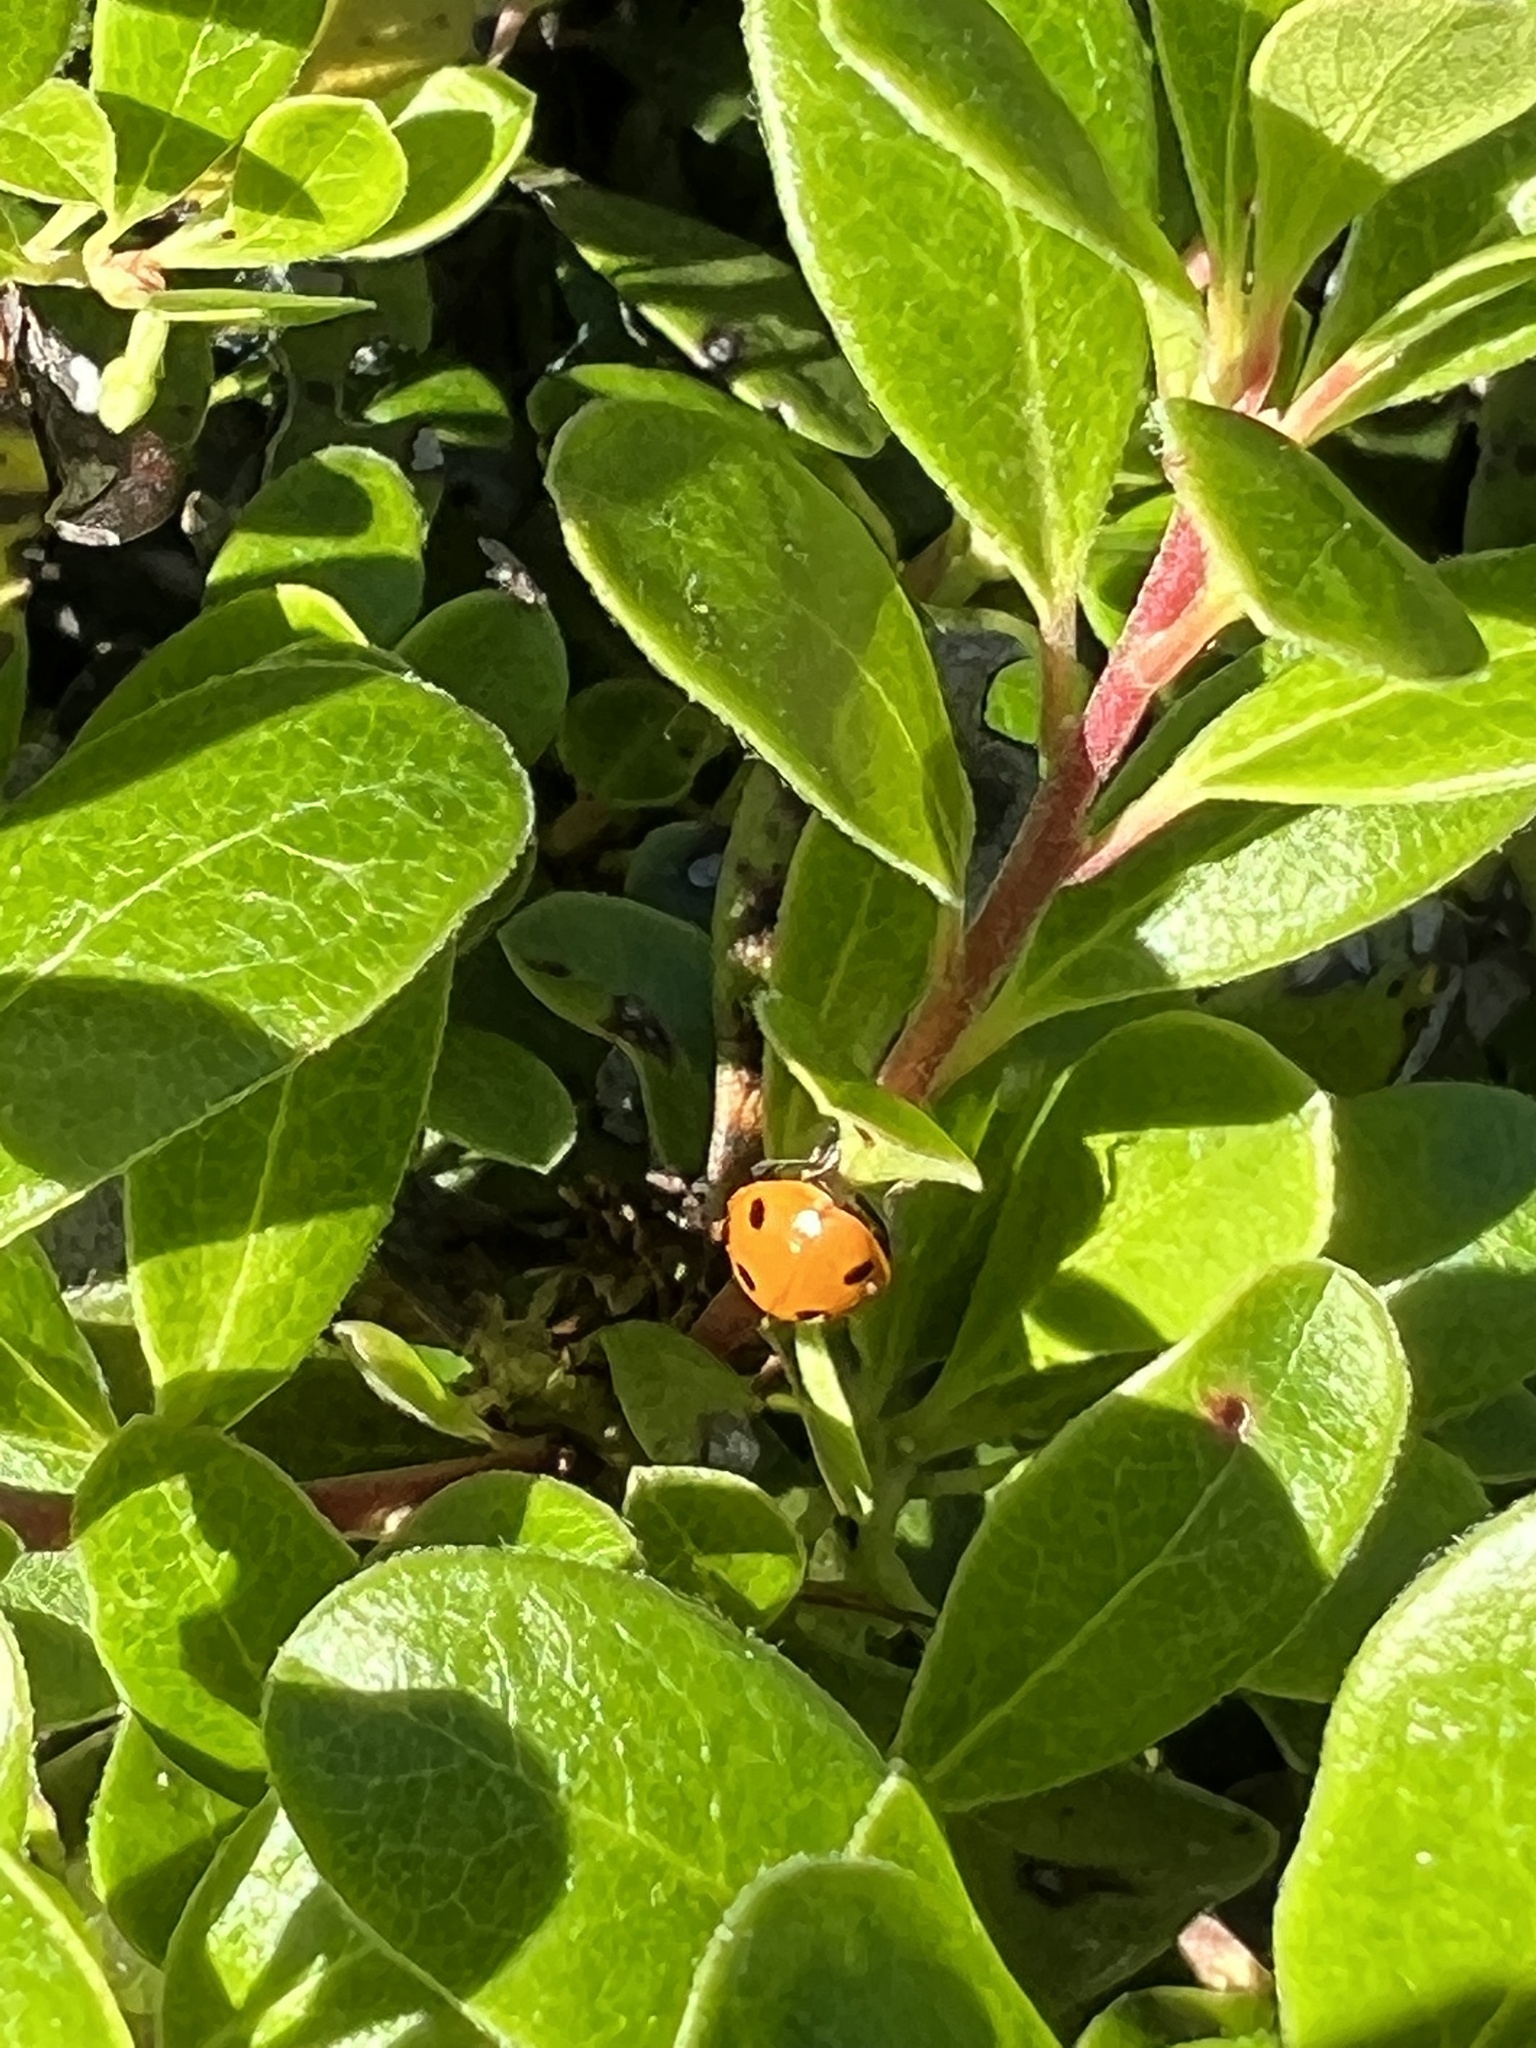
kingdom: Animalia
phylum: Arthropoda
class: Insecta
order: Coleoptera
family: Coccinellidae
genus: Coccinella
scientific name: Coccinella septempunctata
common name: Sevenspotted lady beetle
